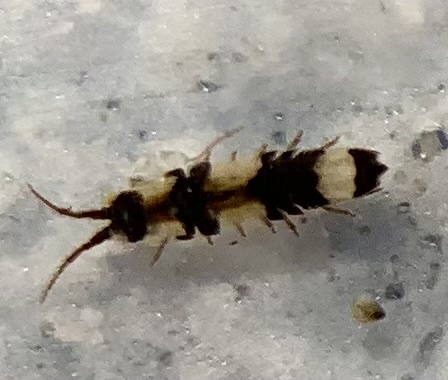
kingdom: Animalia
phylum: Arthropoda
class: Malacostraca
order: Isopoda
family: Idoteidae
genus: Idotea
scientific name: Idotea balthica
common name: Baltic isopod
